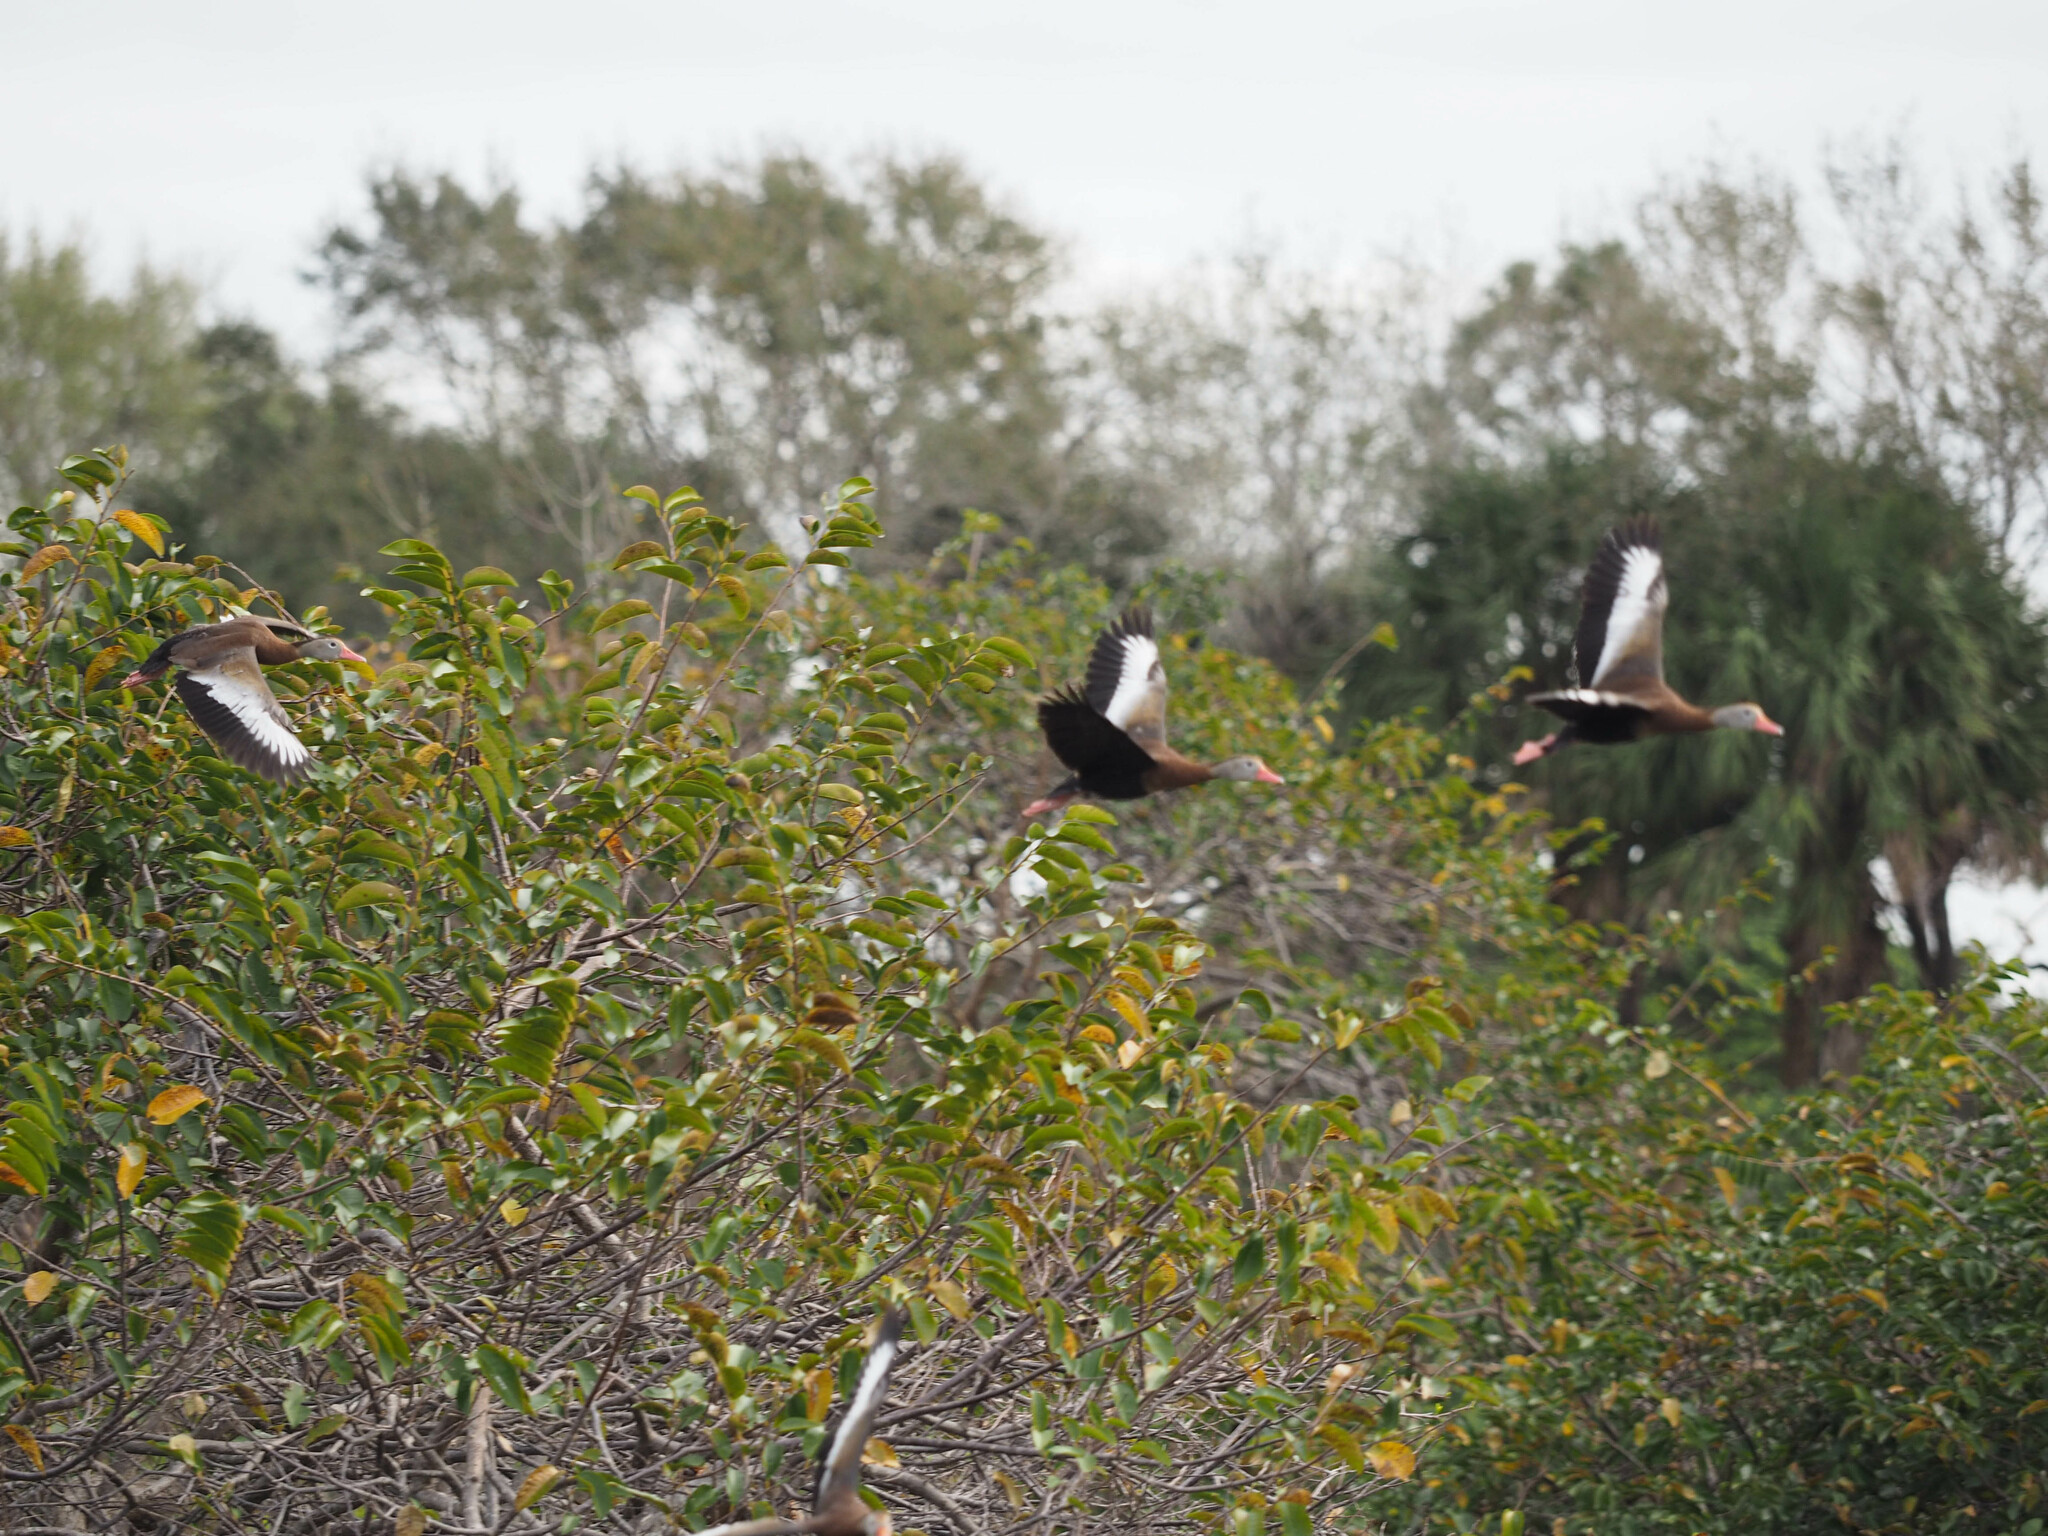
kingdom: Animalia
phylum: Chordata
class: Aves
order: Anseriformes
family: Anatidae
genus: Dendrocygna
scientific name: Dendrocygna autumnalis
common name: Black-bellied whistling duck
